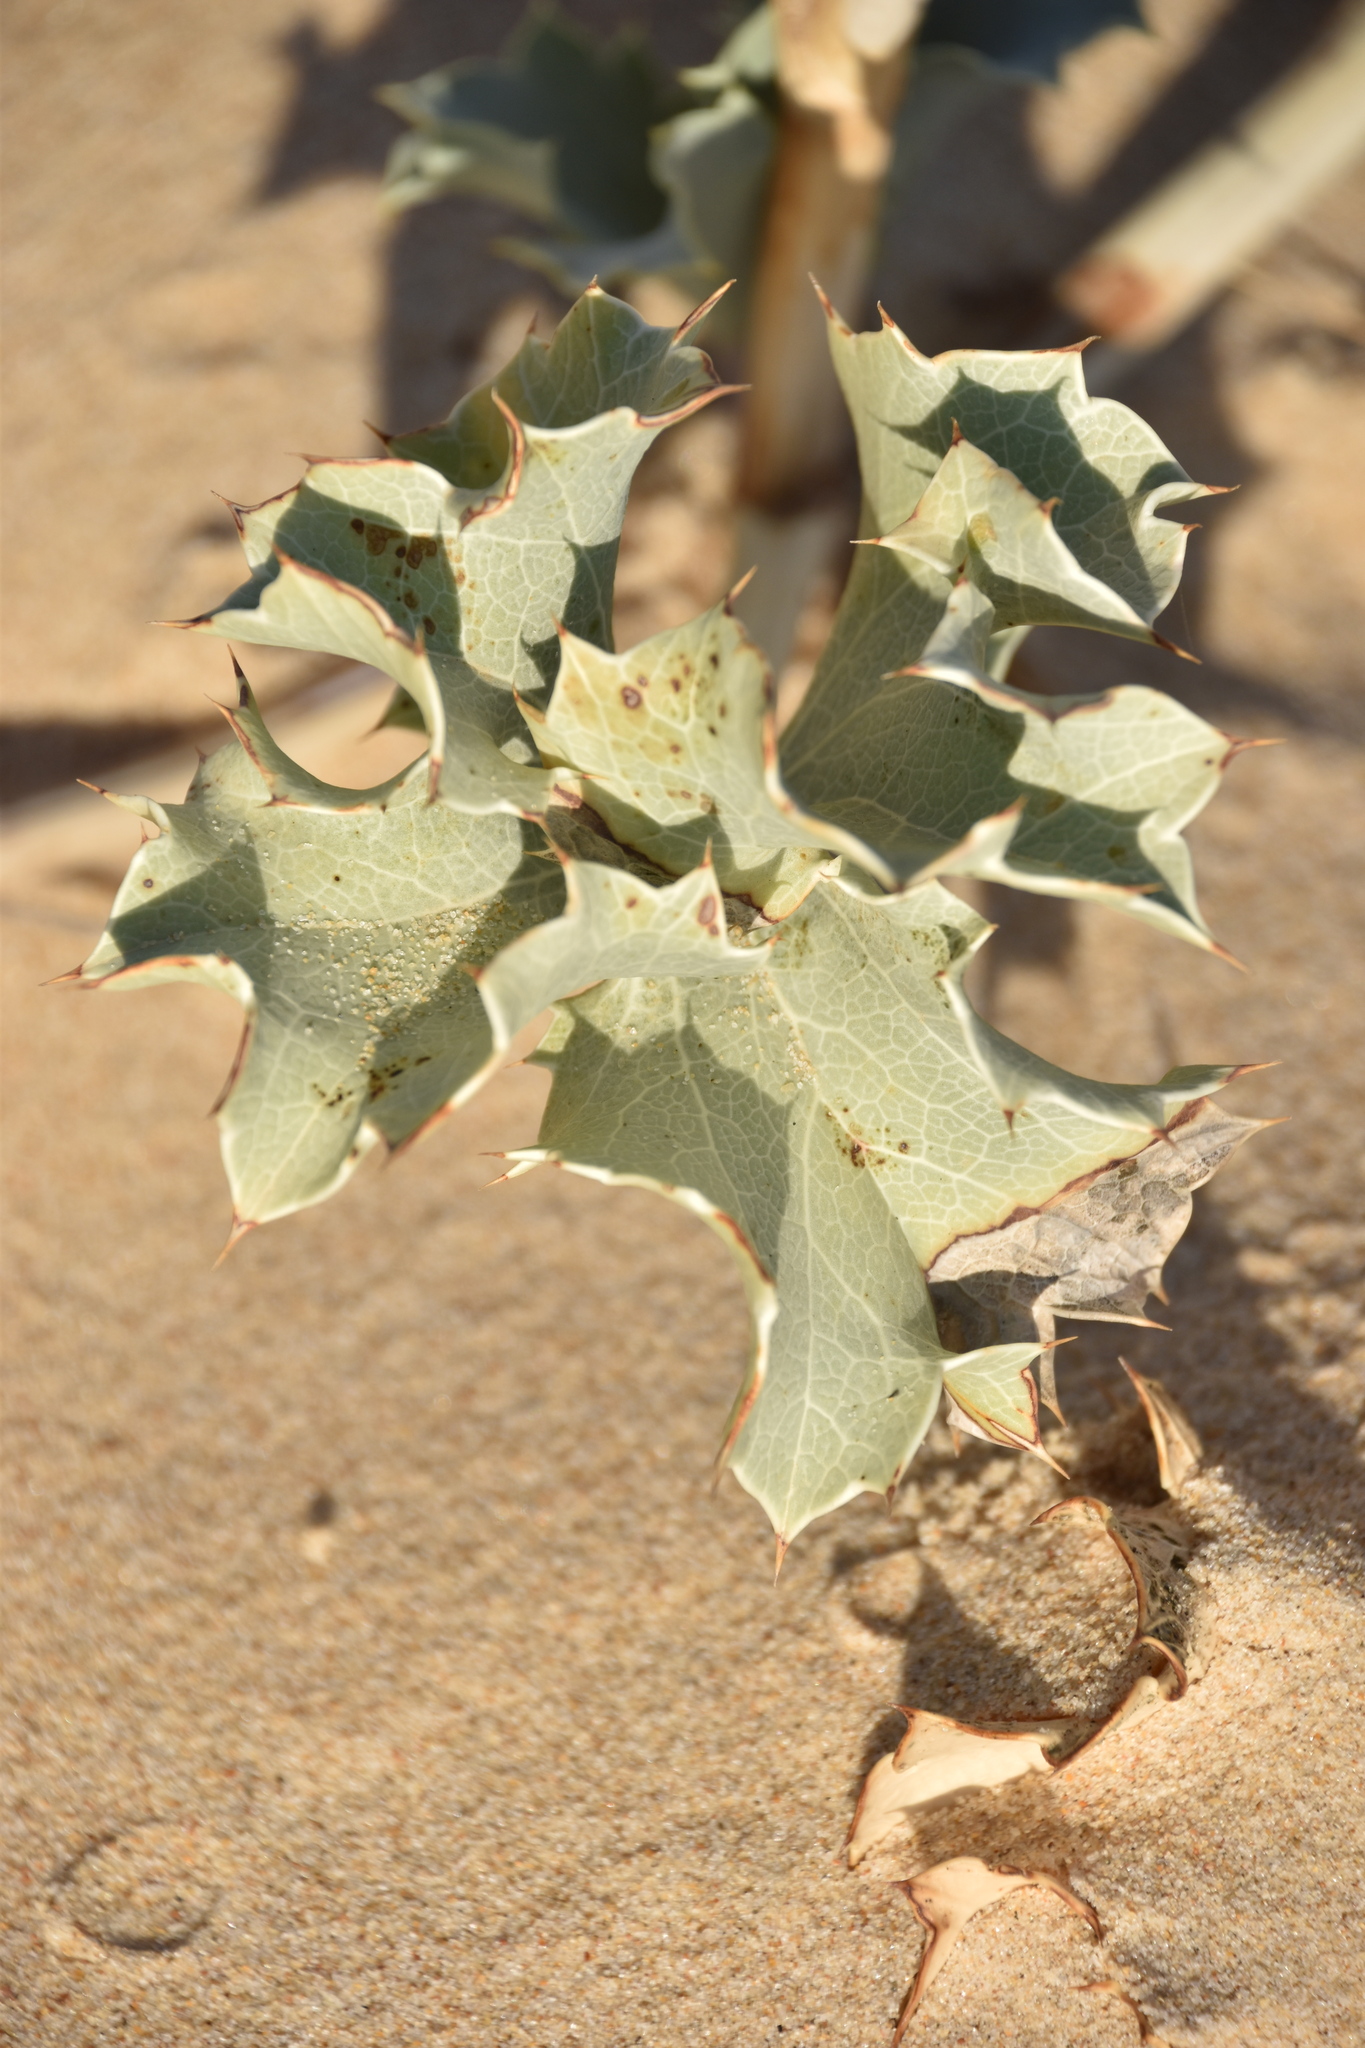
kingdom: Plantae
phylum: Tracheophyta
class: Magnoliopsida
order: Apiales
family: Apiaceae
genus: Eryngium
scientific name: Eryngium maritimum
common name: Sea-holly
